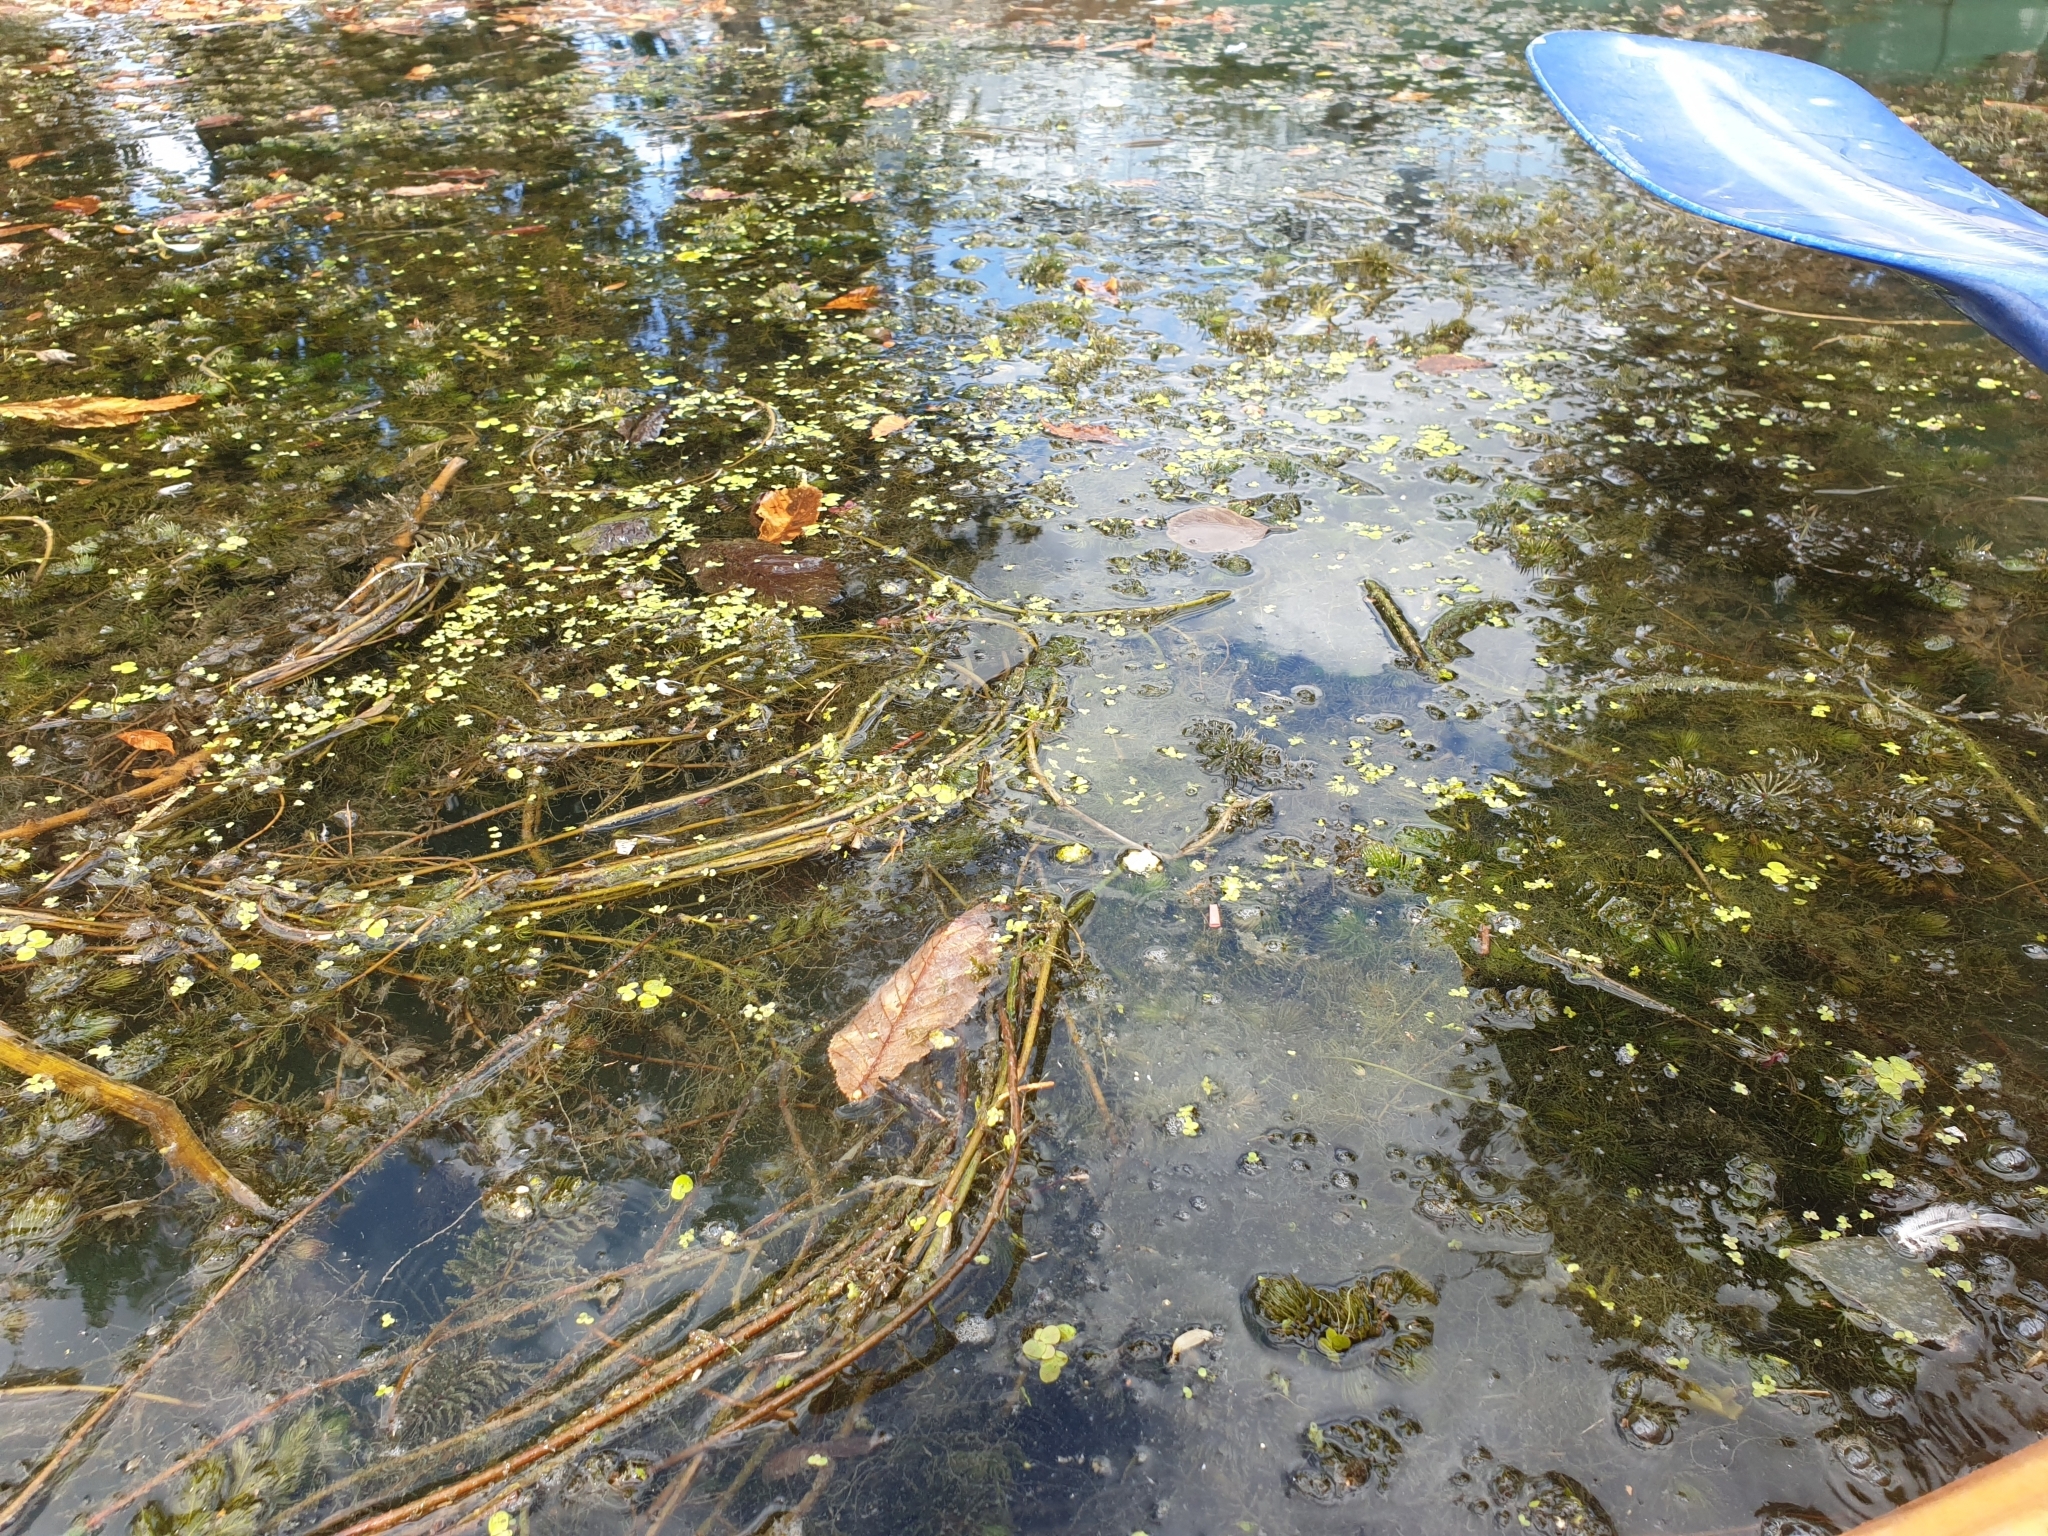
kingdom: Plantae
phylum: Tracheophyta
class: Magnoliopsida
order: Ceratophyllales
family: Ceratophyllaceae
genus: Ceratophyllum
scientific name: Ceratophyllum demersum
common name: Rigid hornwort
